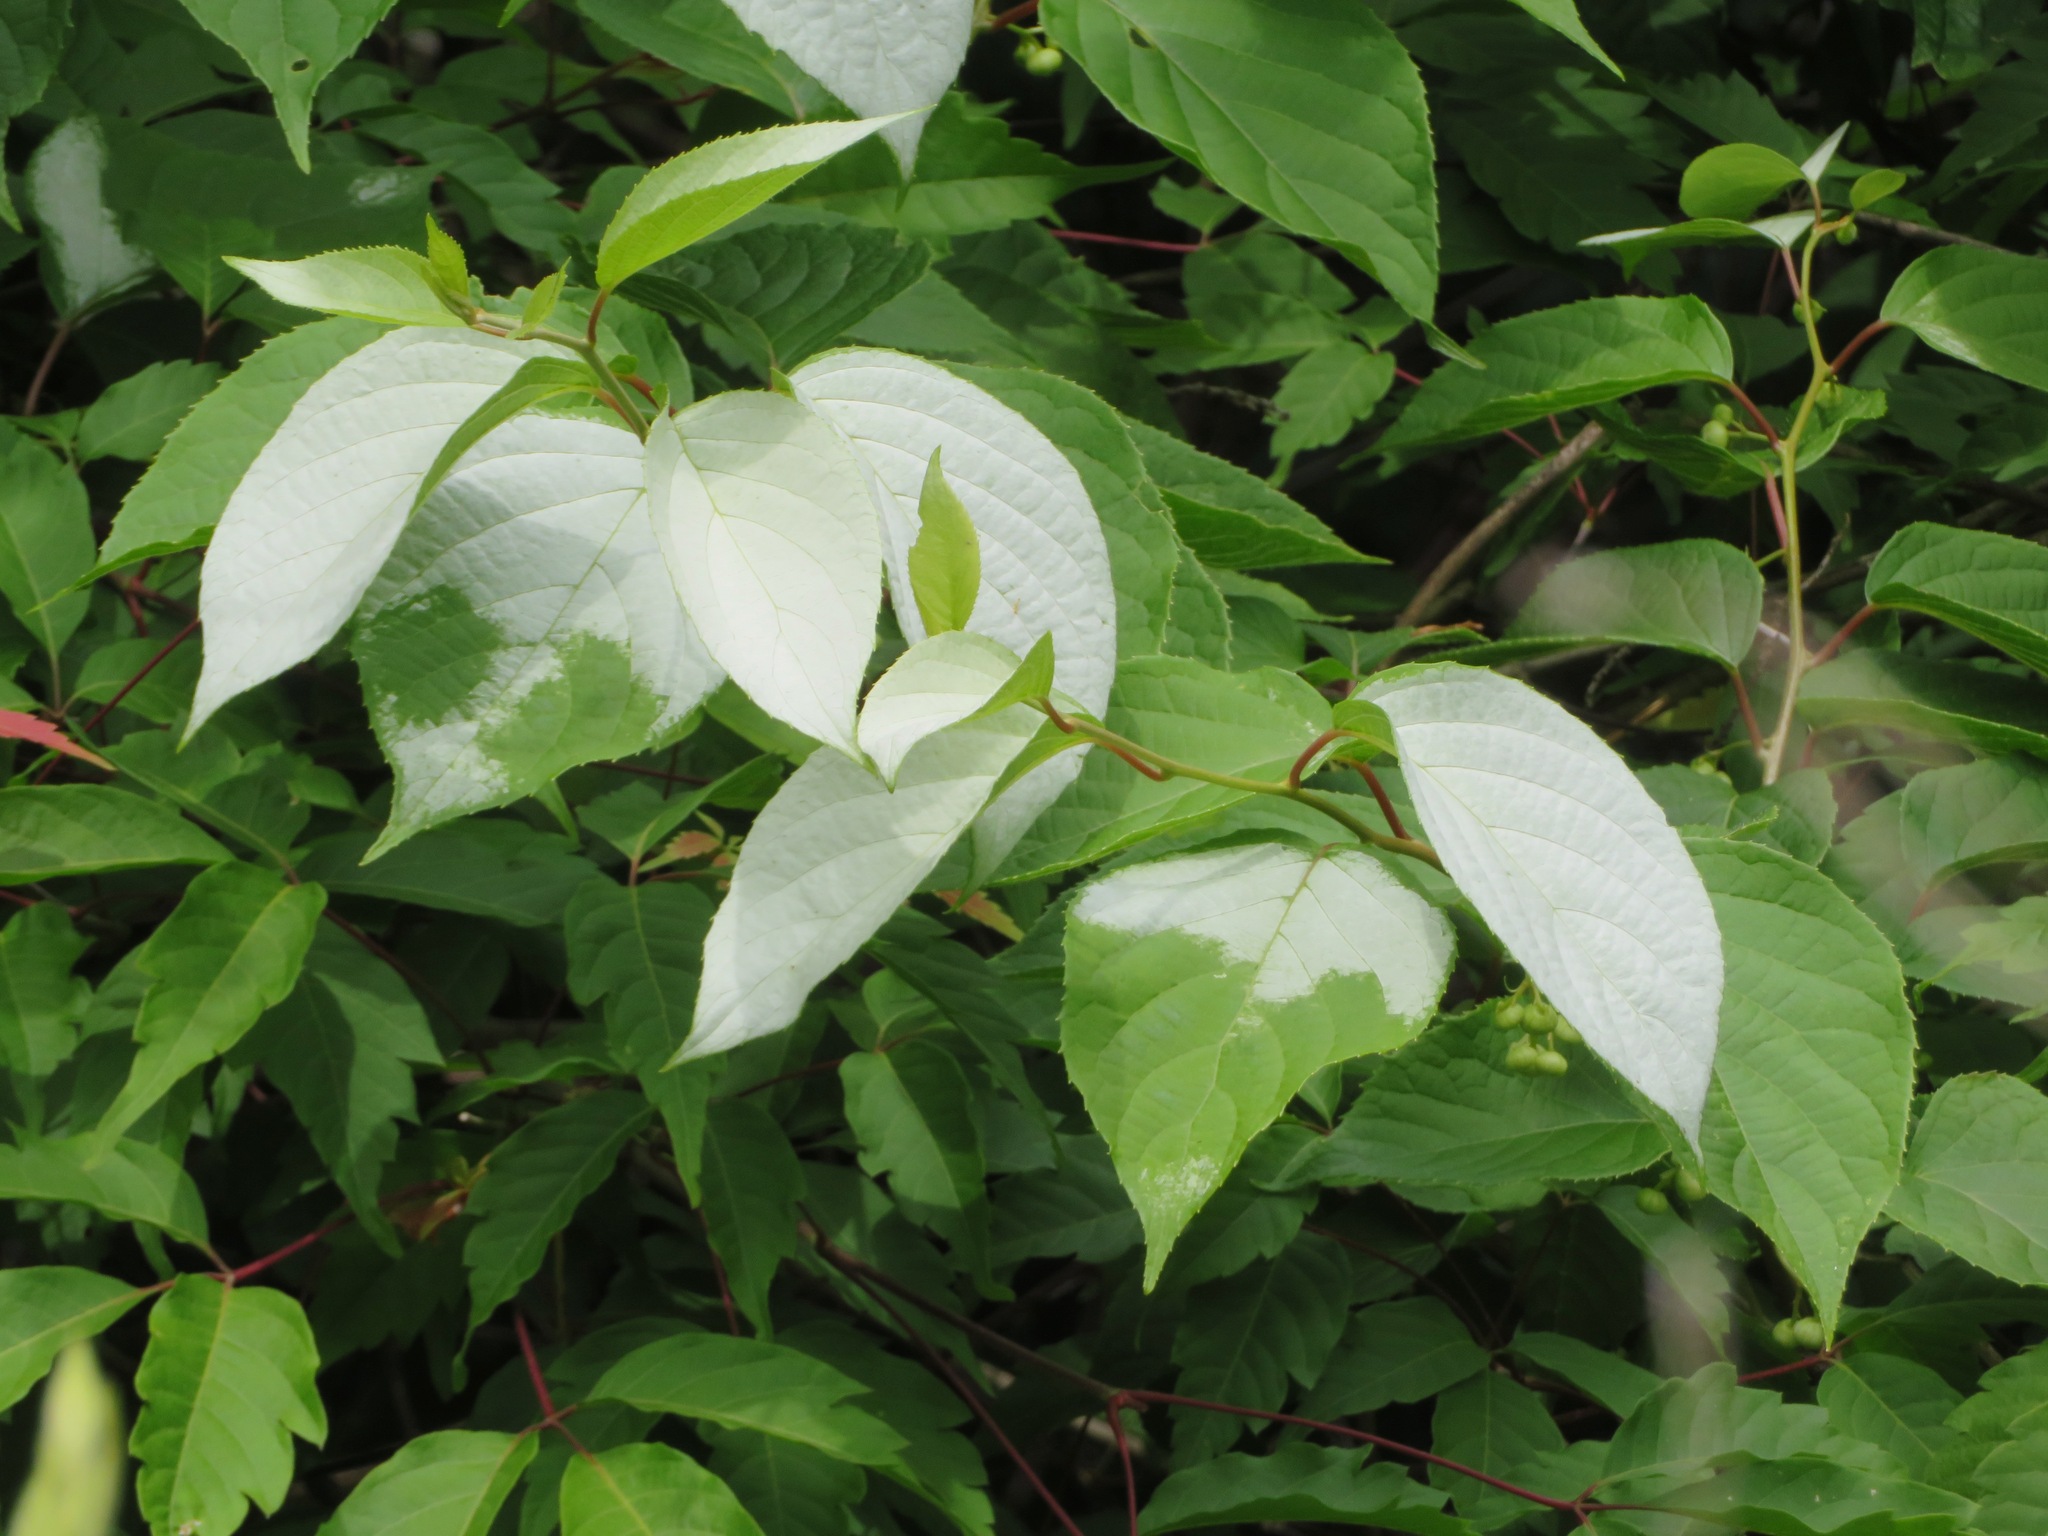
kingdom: Plantae
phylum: Tracheophyta
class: Magnoliopsida
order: Ericales
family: Actinidiaceae
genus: Actinidia
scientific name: Actinidia polygama
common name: Silver vine
